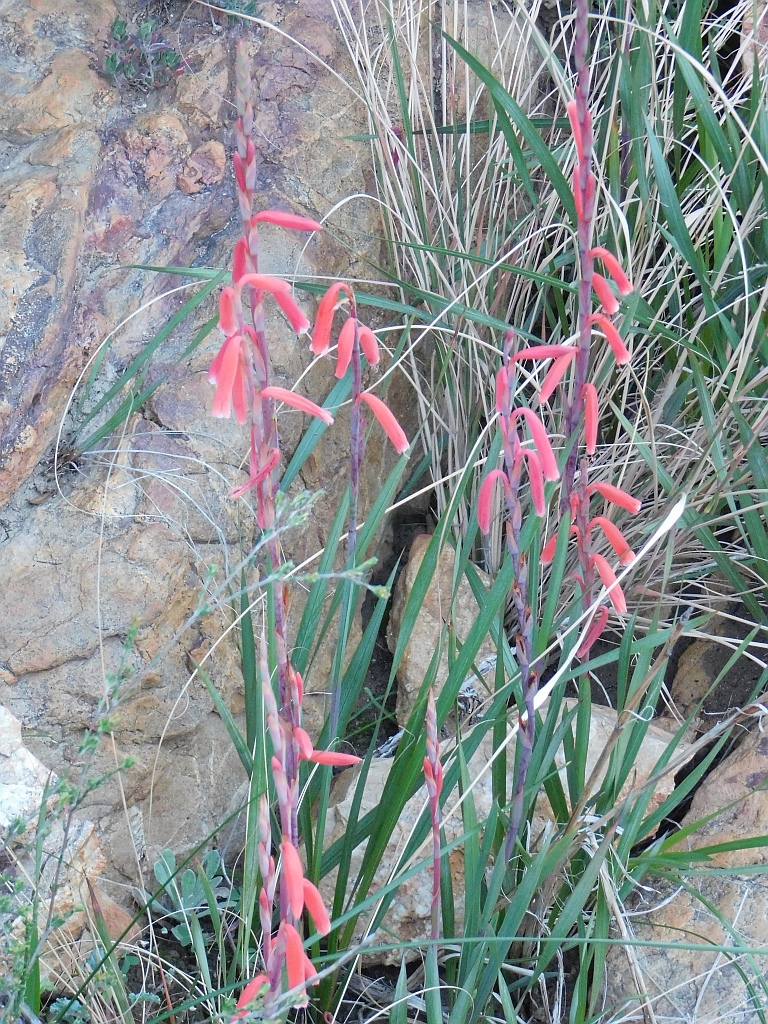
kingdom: Plantae
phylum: Tracheophyta
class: Liliopsida
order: Asparagales
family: Iridaceae
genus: Watsonia
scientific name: Watsonia aletroides
